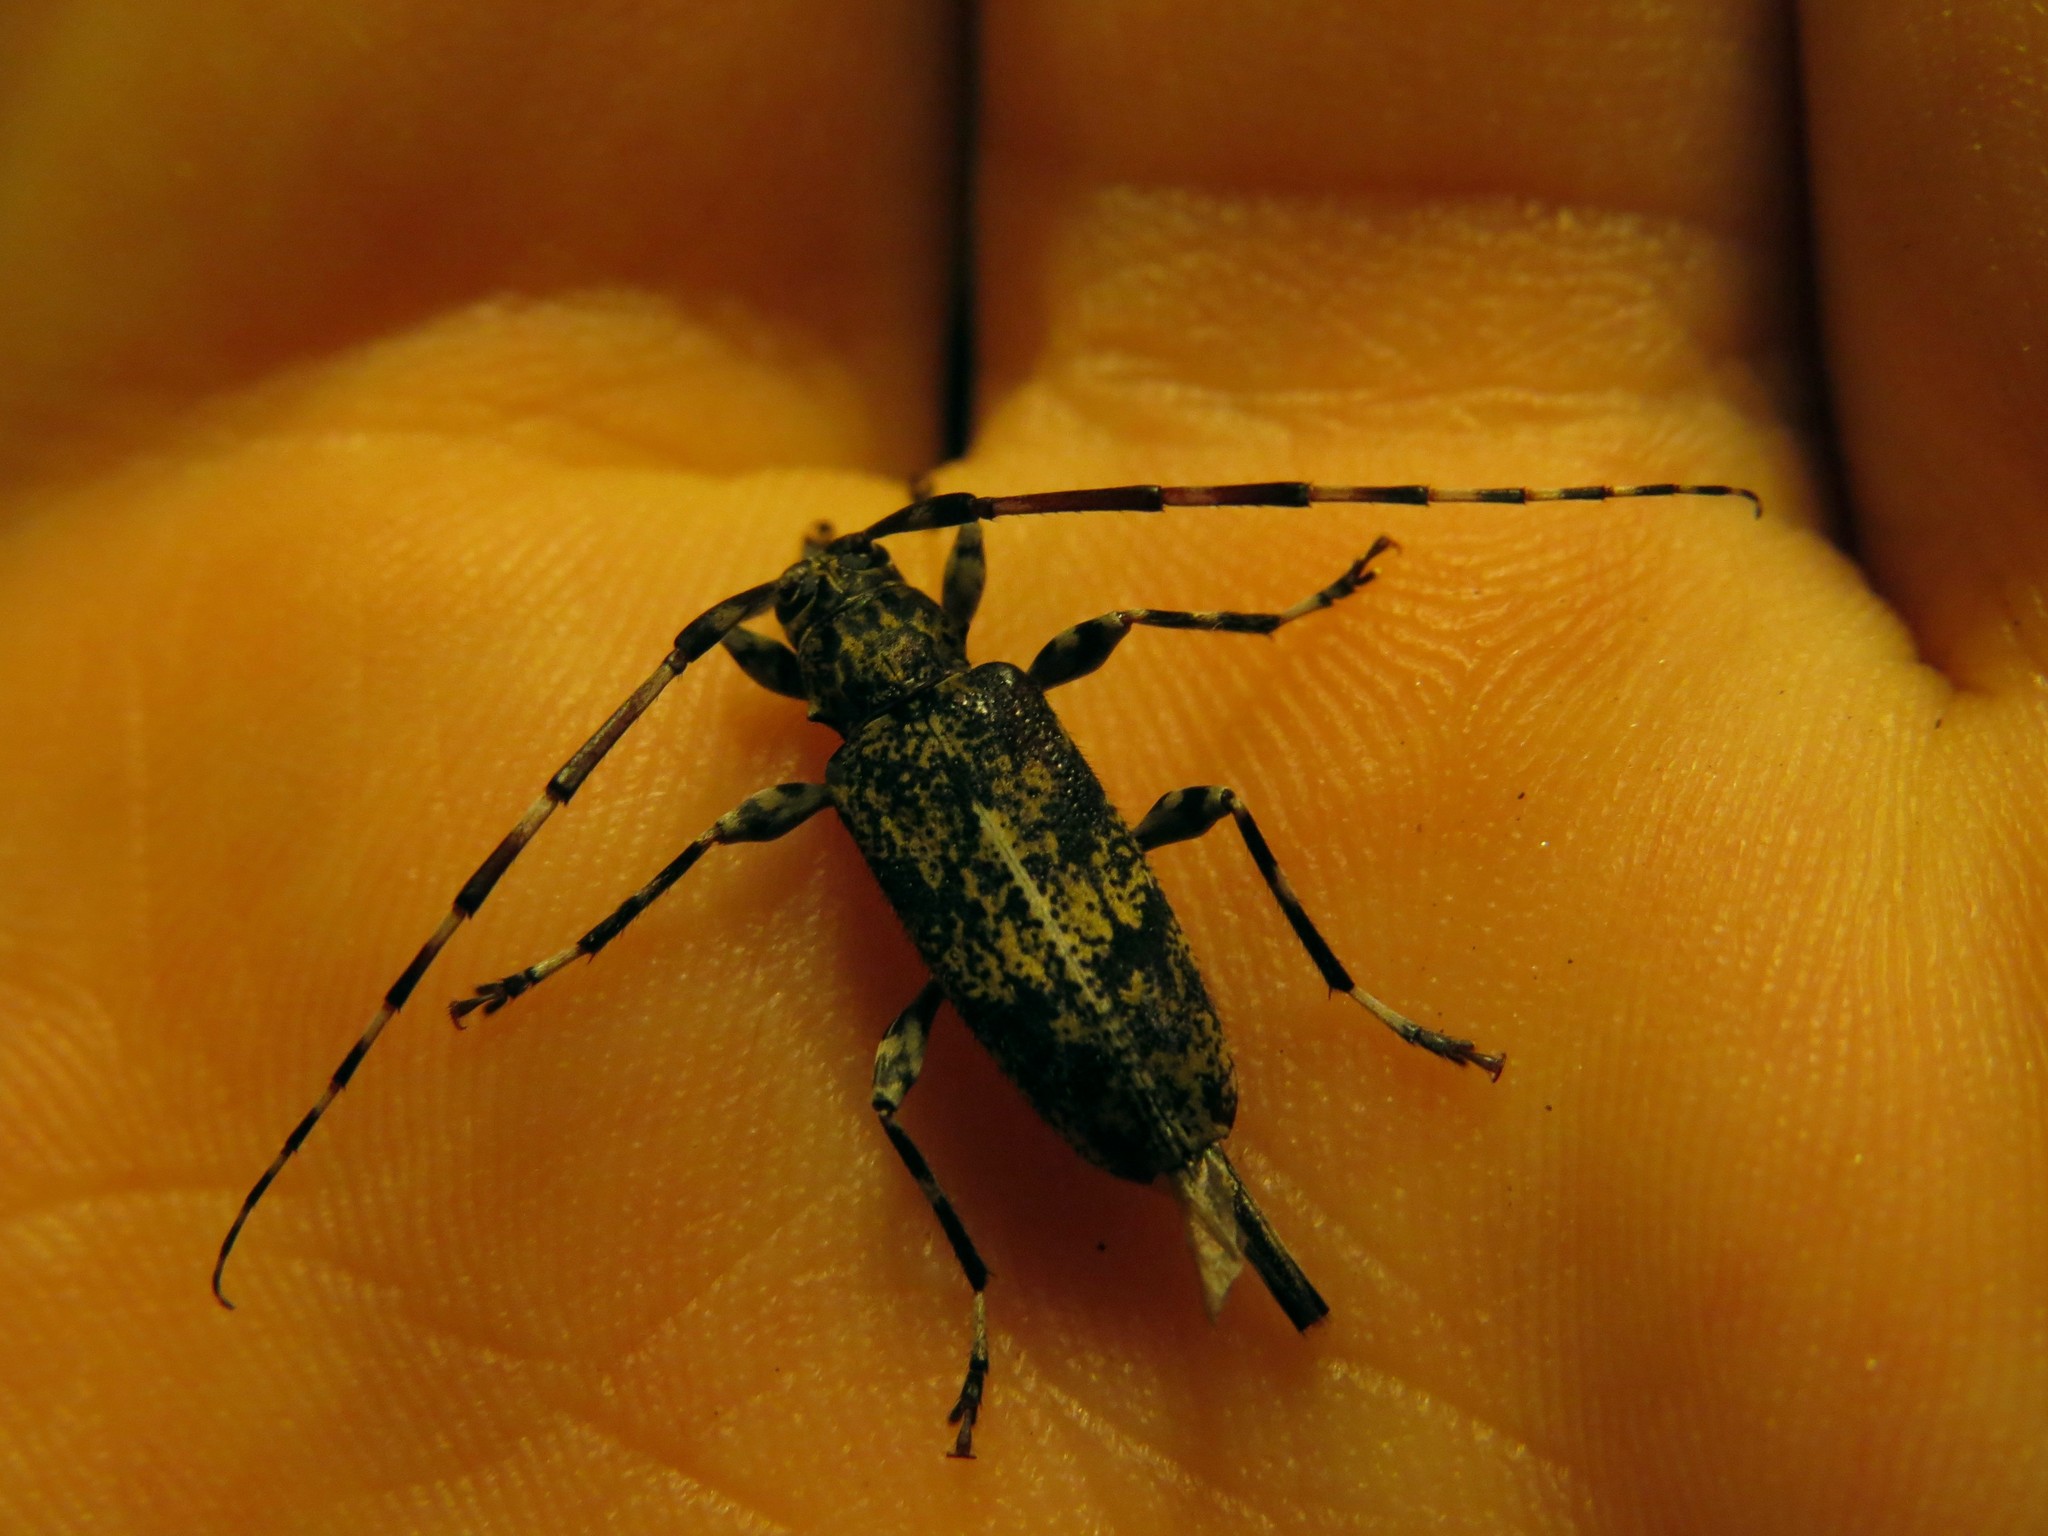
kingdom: Animalia
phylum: Arthropoda
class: Insecta
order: Coleoptera
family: Cerambycidae
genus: Graphisurus
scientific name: Graphisurus fasciatus
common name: Banded graphisurus
